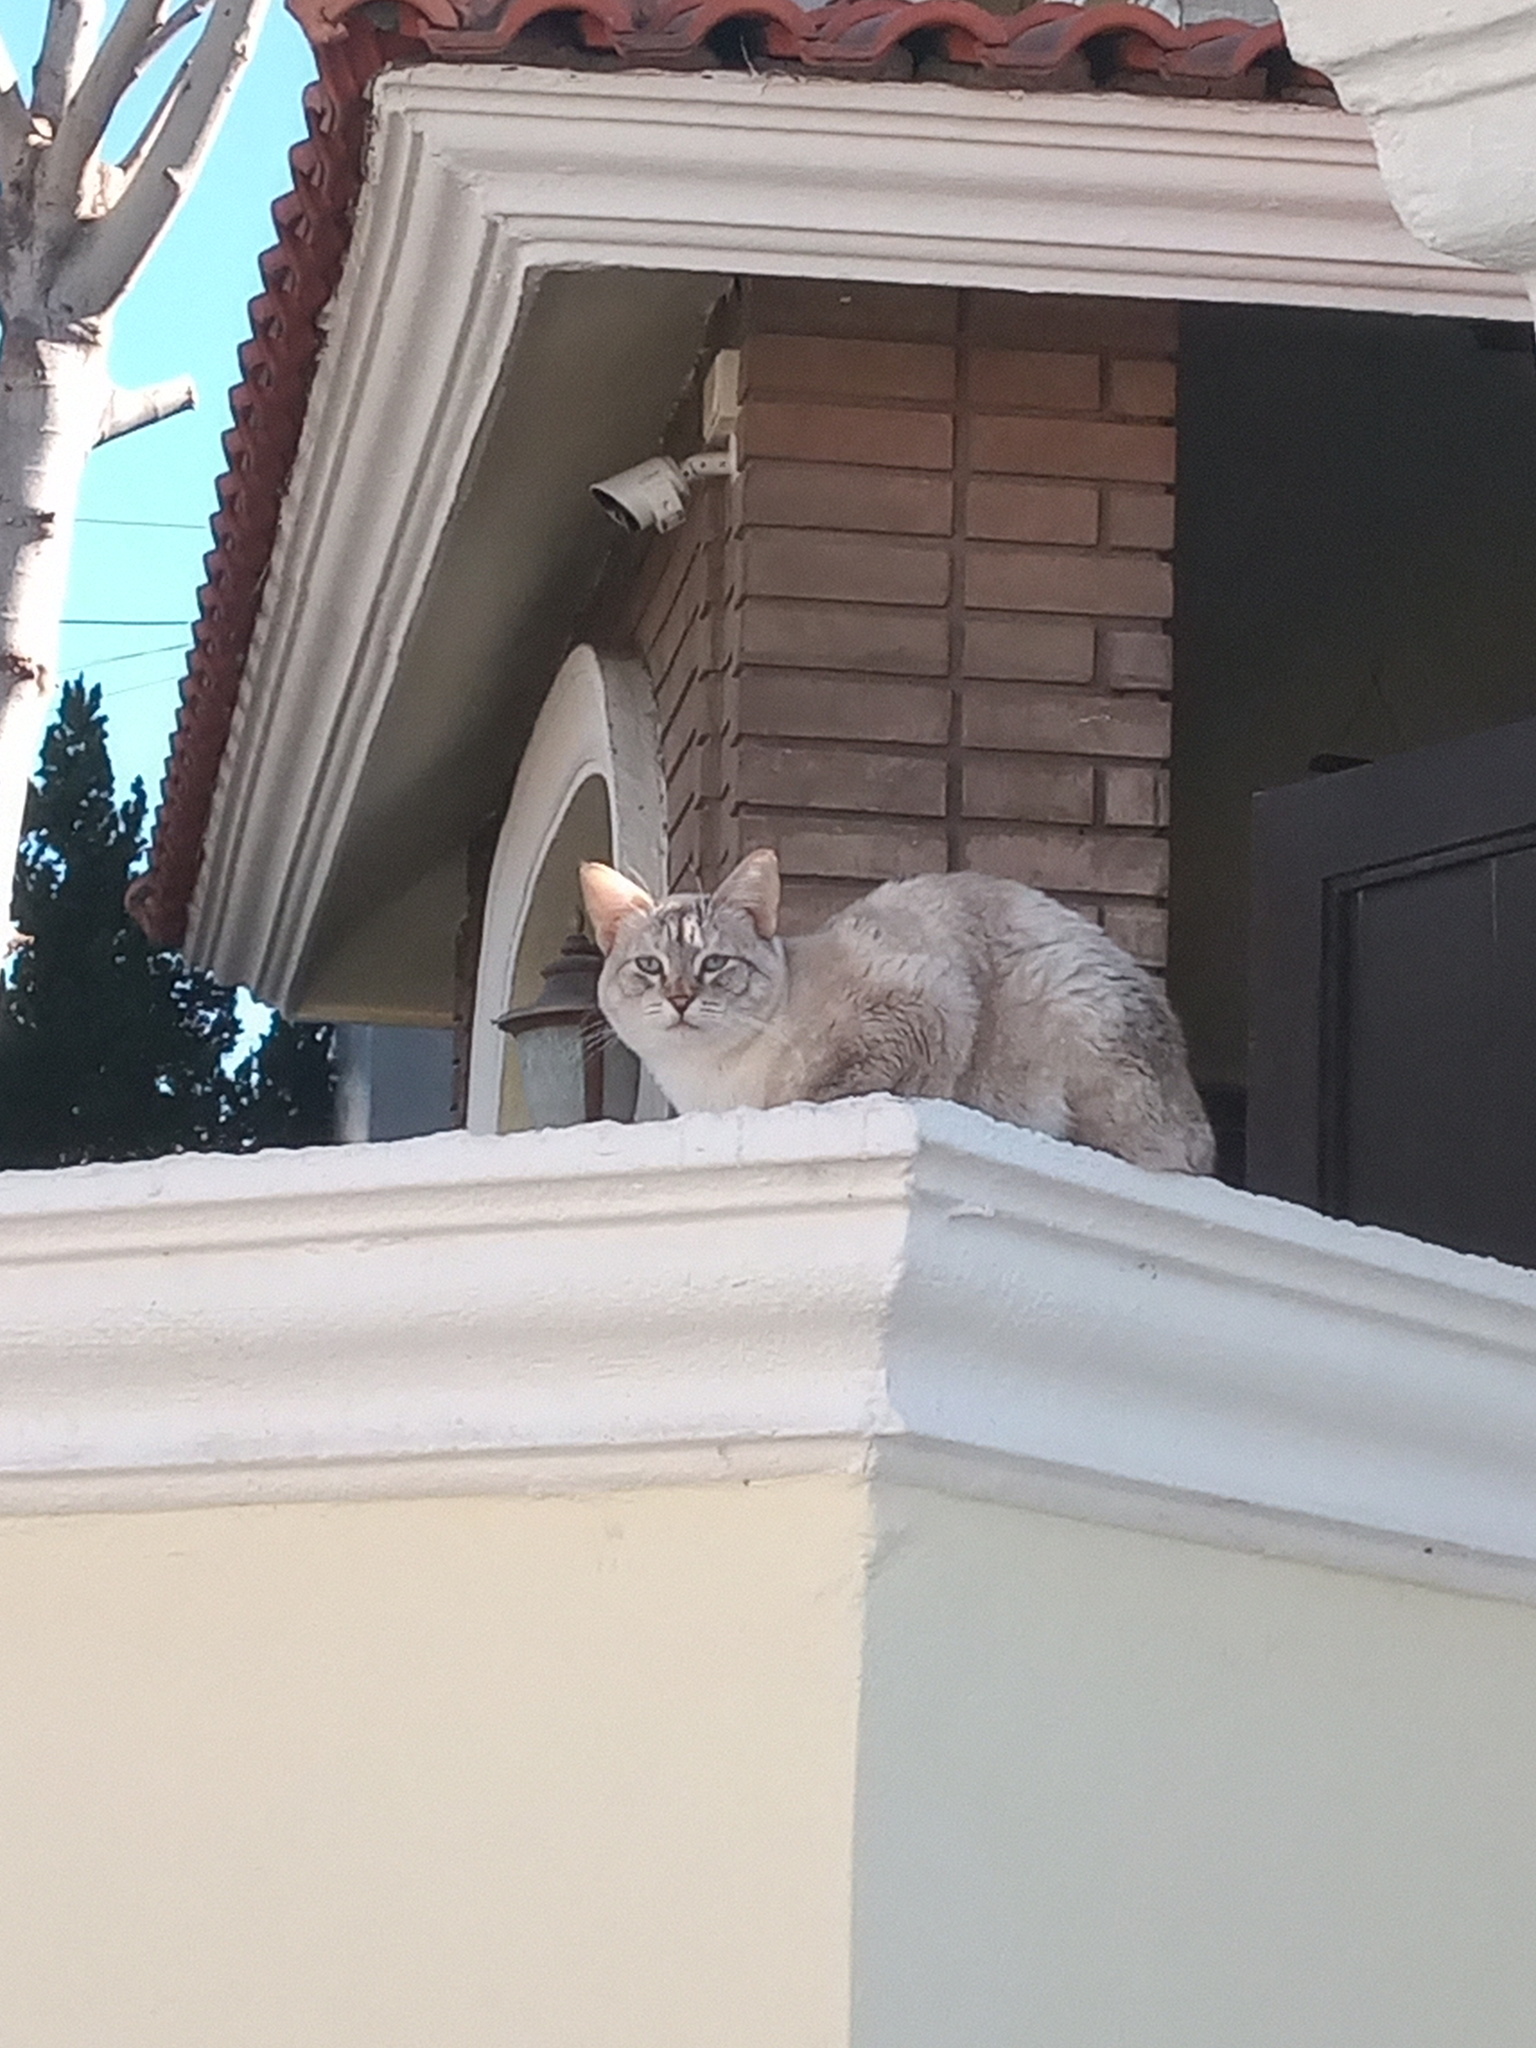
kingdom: Animalia
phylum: Chordata
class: Mammalia
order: Carnivora
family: Felidae
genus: Felis
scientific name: Felis catus
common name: Domestic cat
